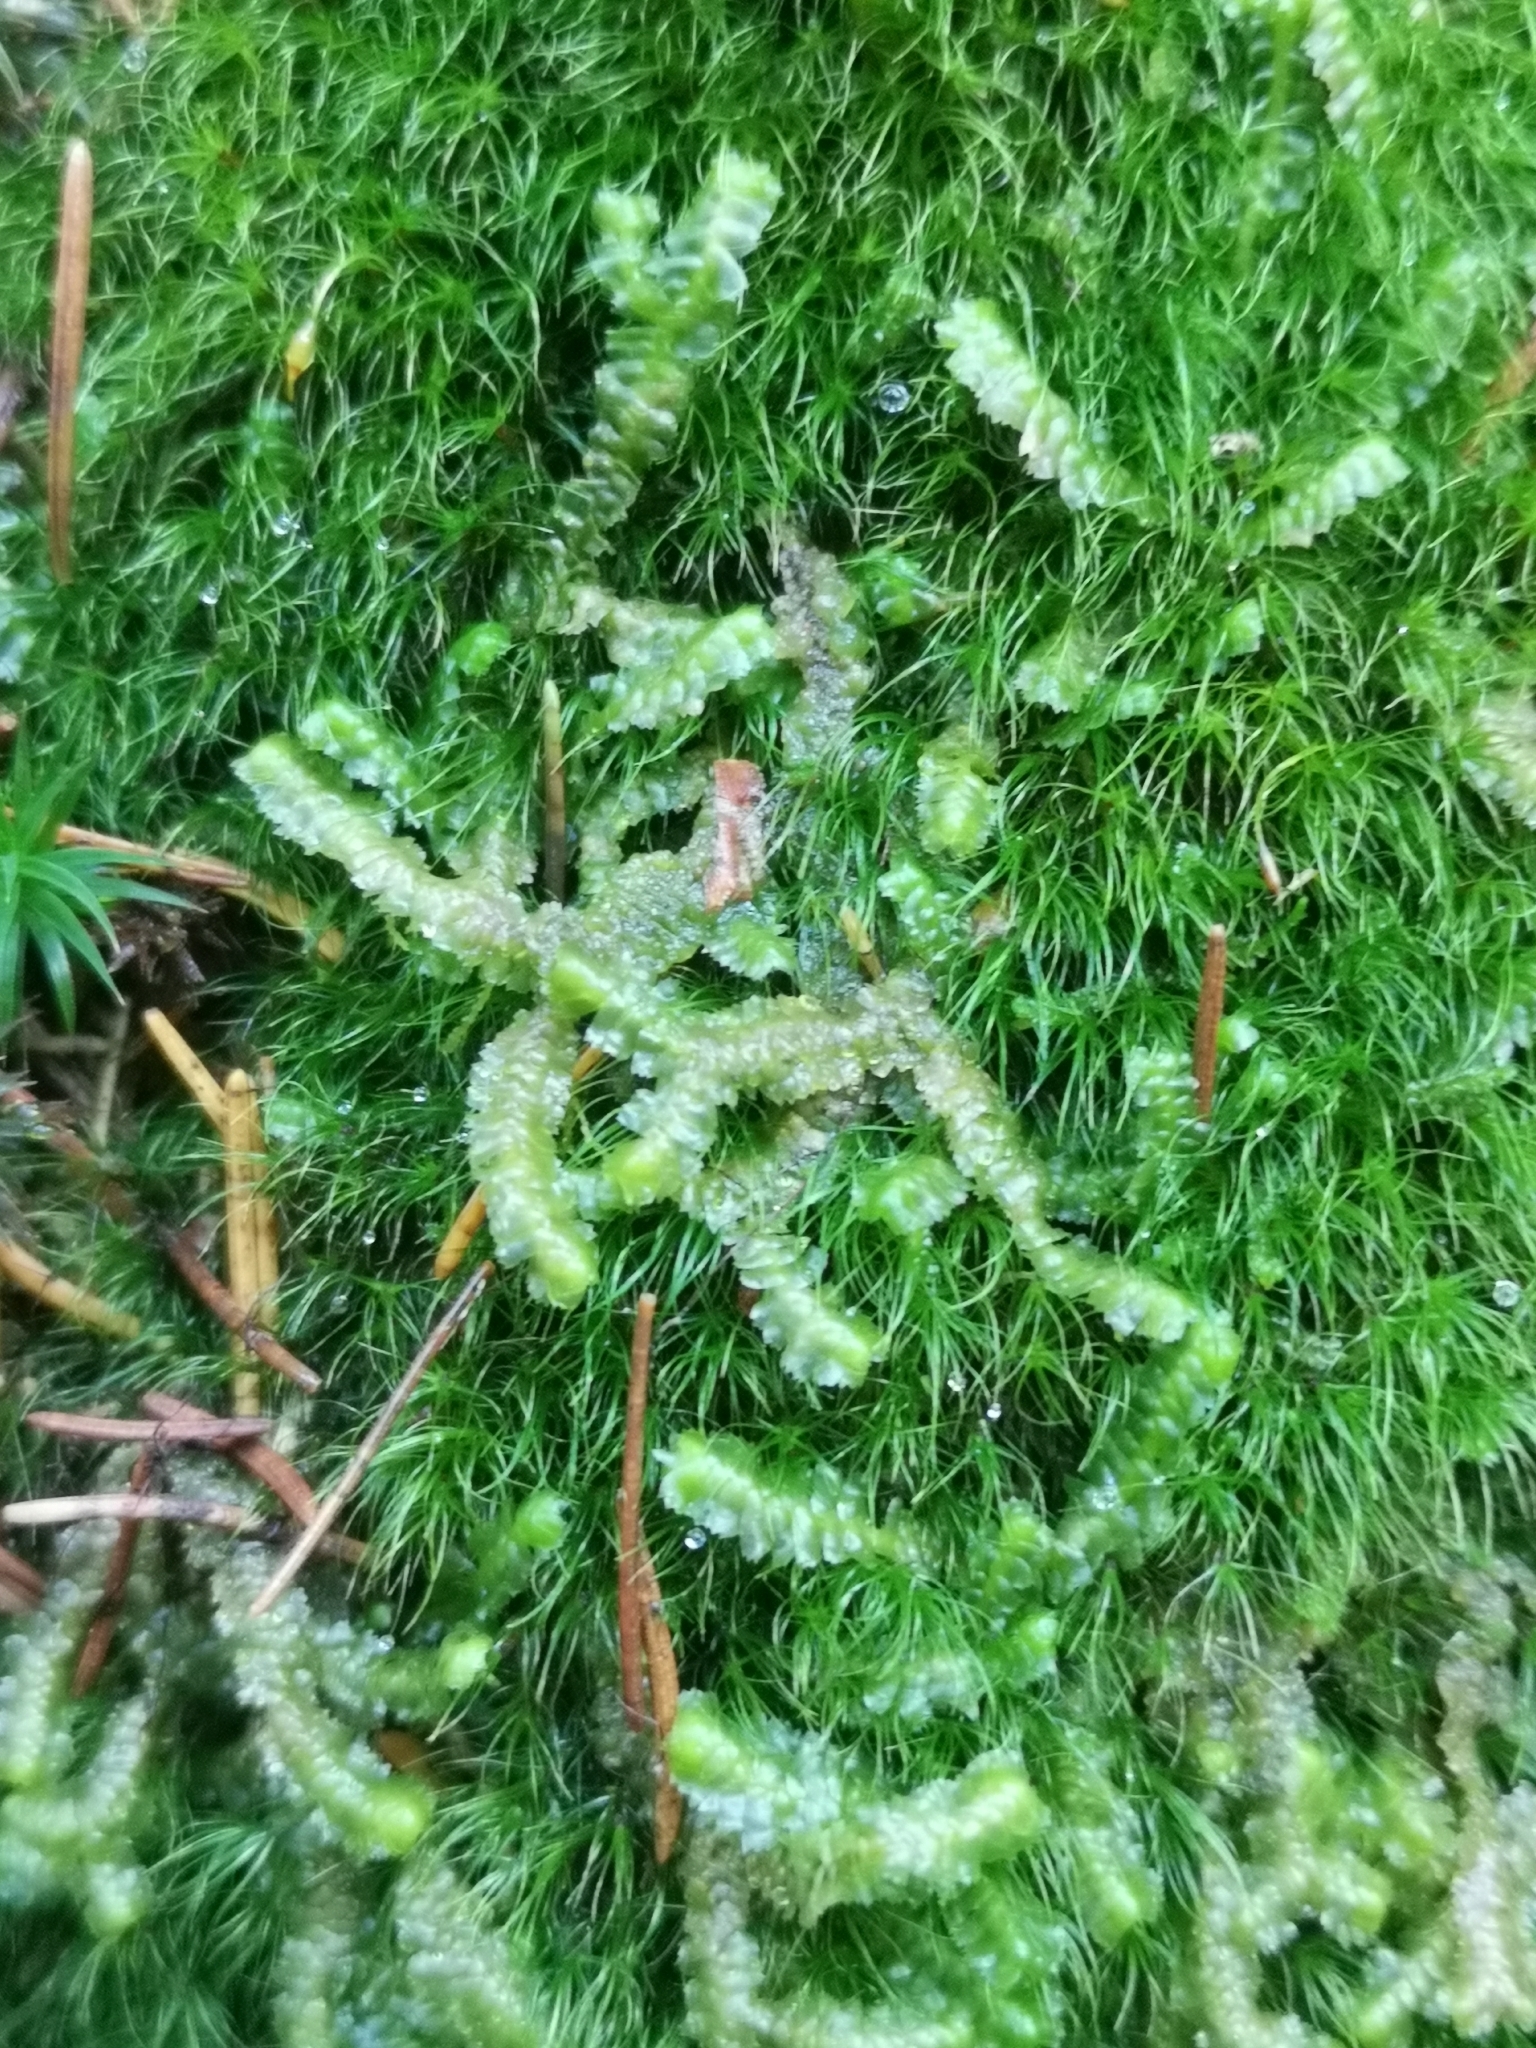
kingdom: Plantae
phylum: Marchantiophyta
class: Jungermanniopsida
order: Jungermanniales
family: Lepidoziaceae
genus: Bazzania
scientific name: Bazzania trilobata
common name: Three-lobed whipwort
